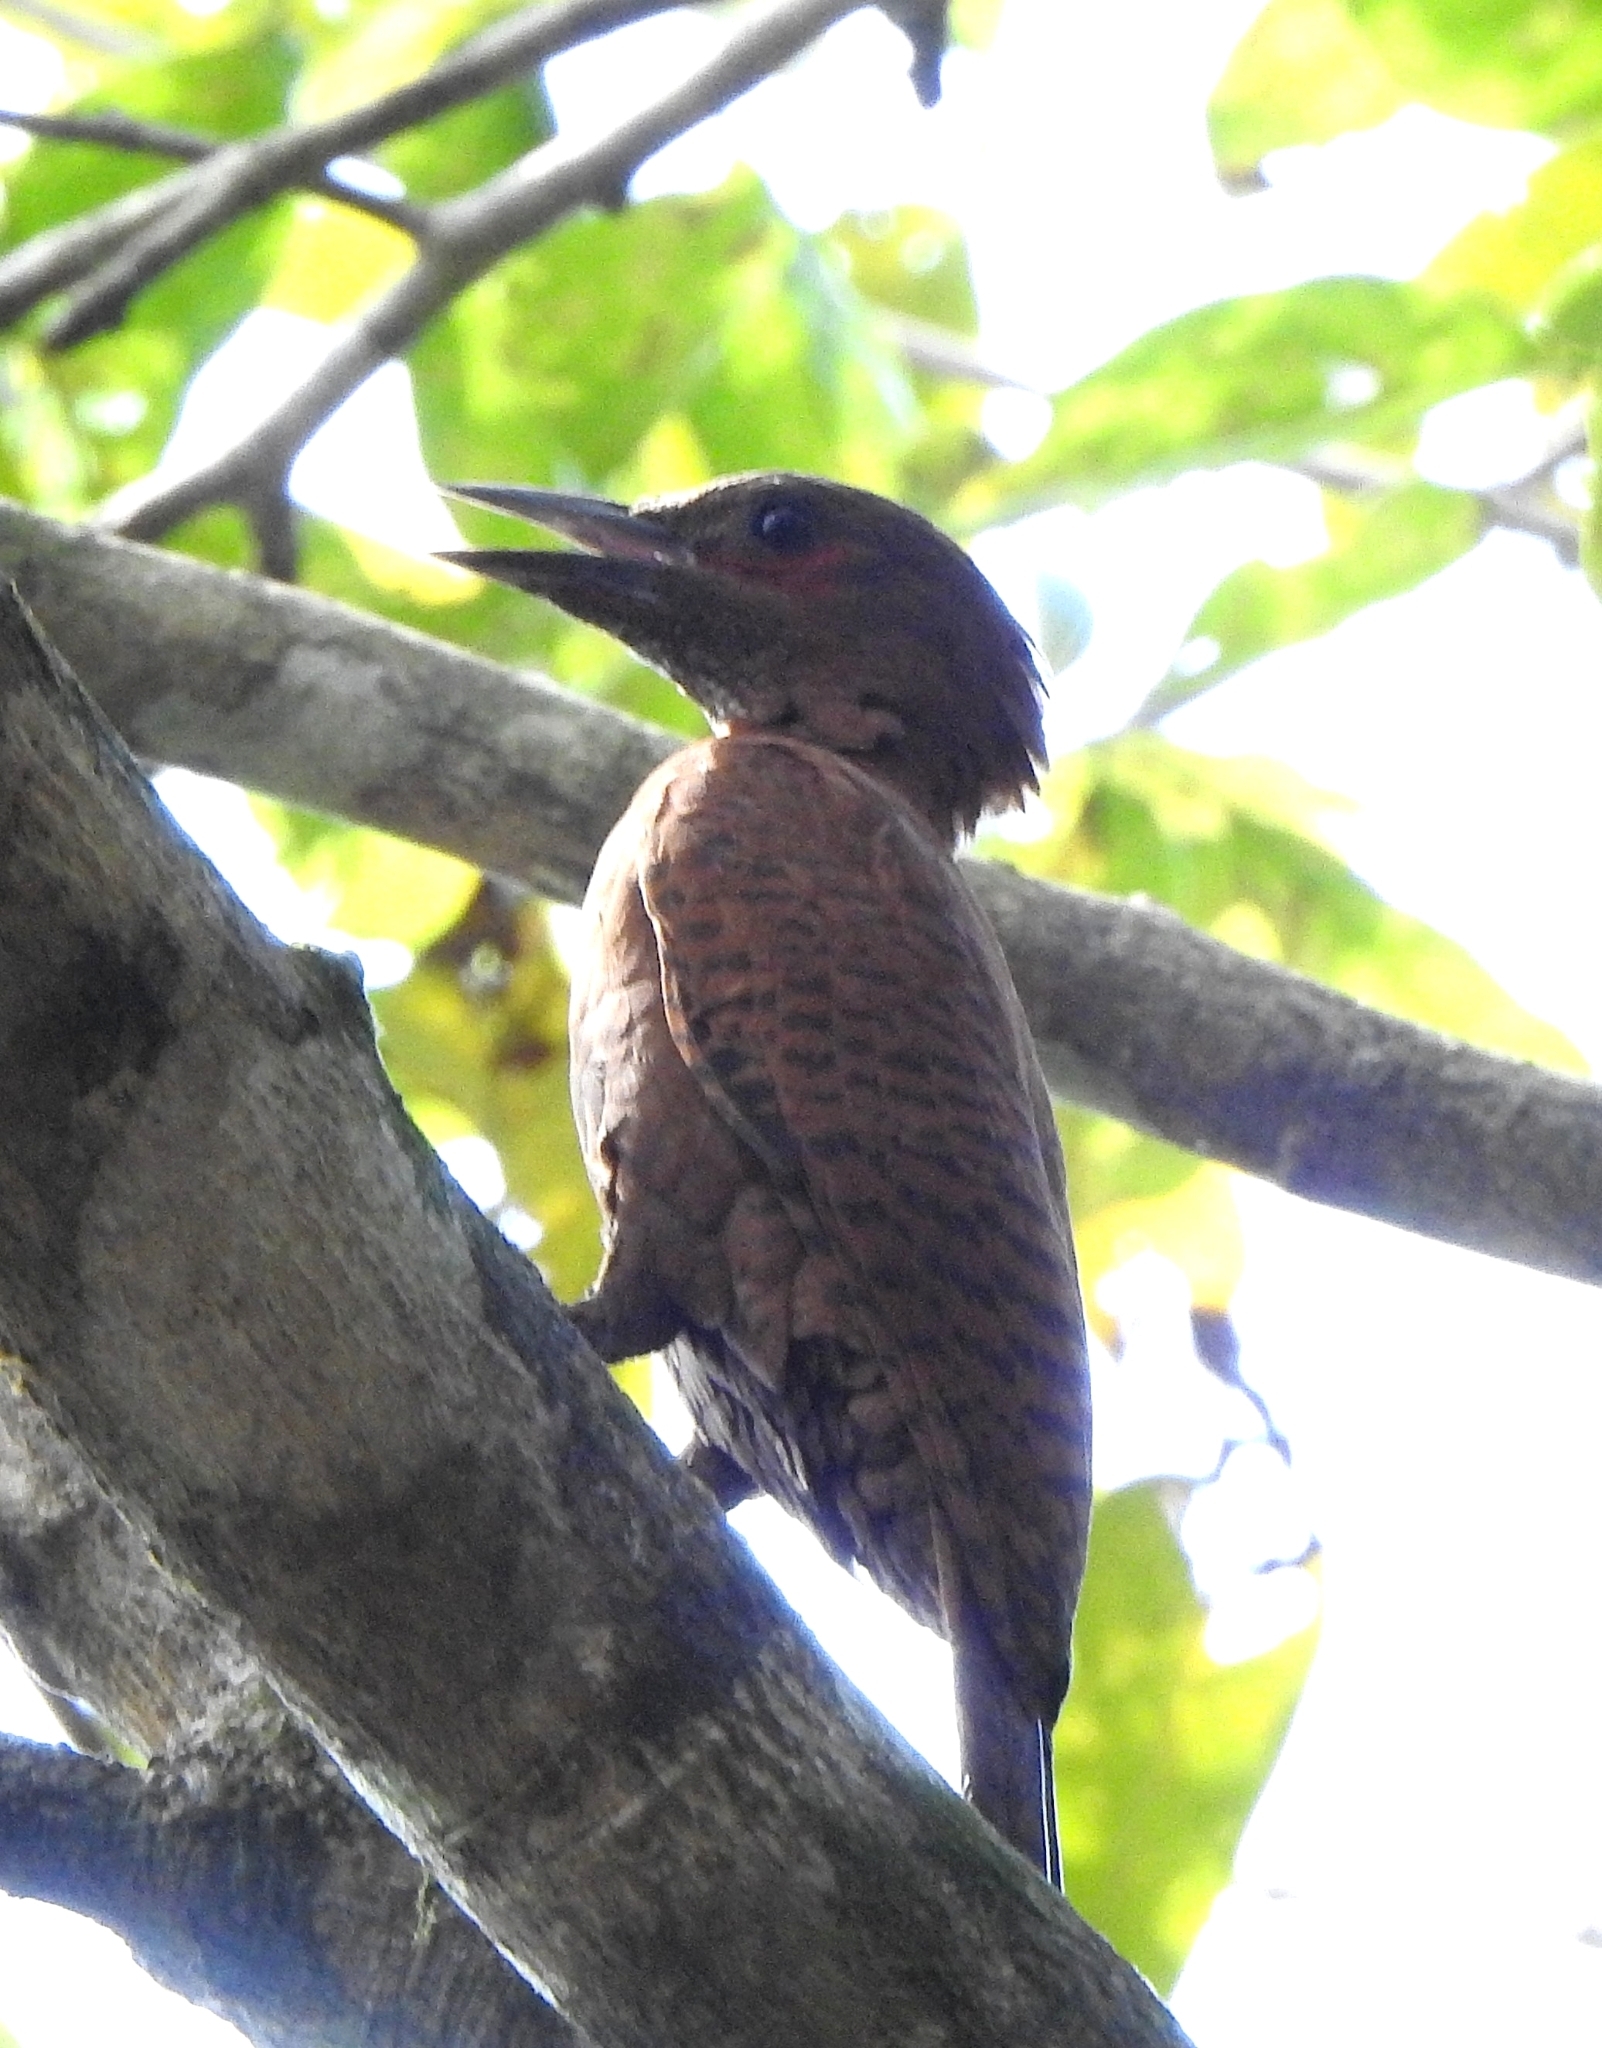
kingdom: Animalia
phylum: Chordata
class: Aves
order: Piciformes
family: Picidae
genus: Micropternus
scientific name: Micropternus brachyurus
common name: Rufous woodpecker
